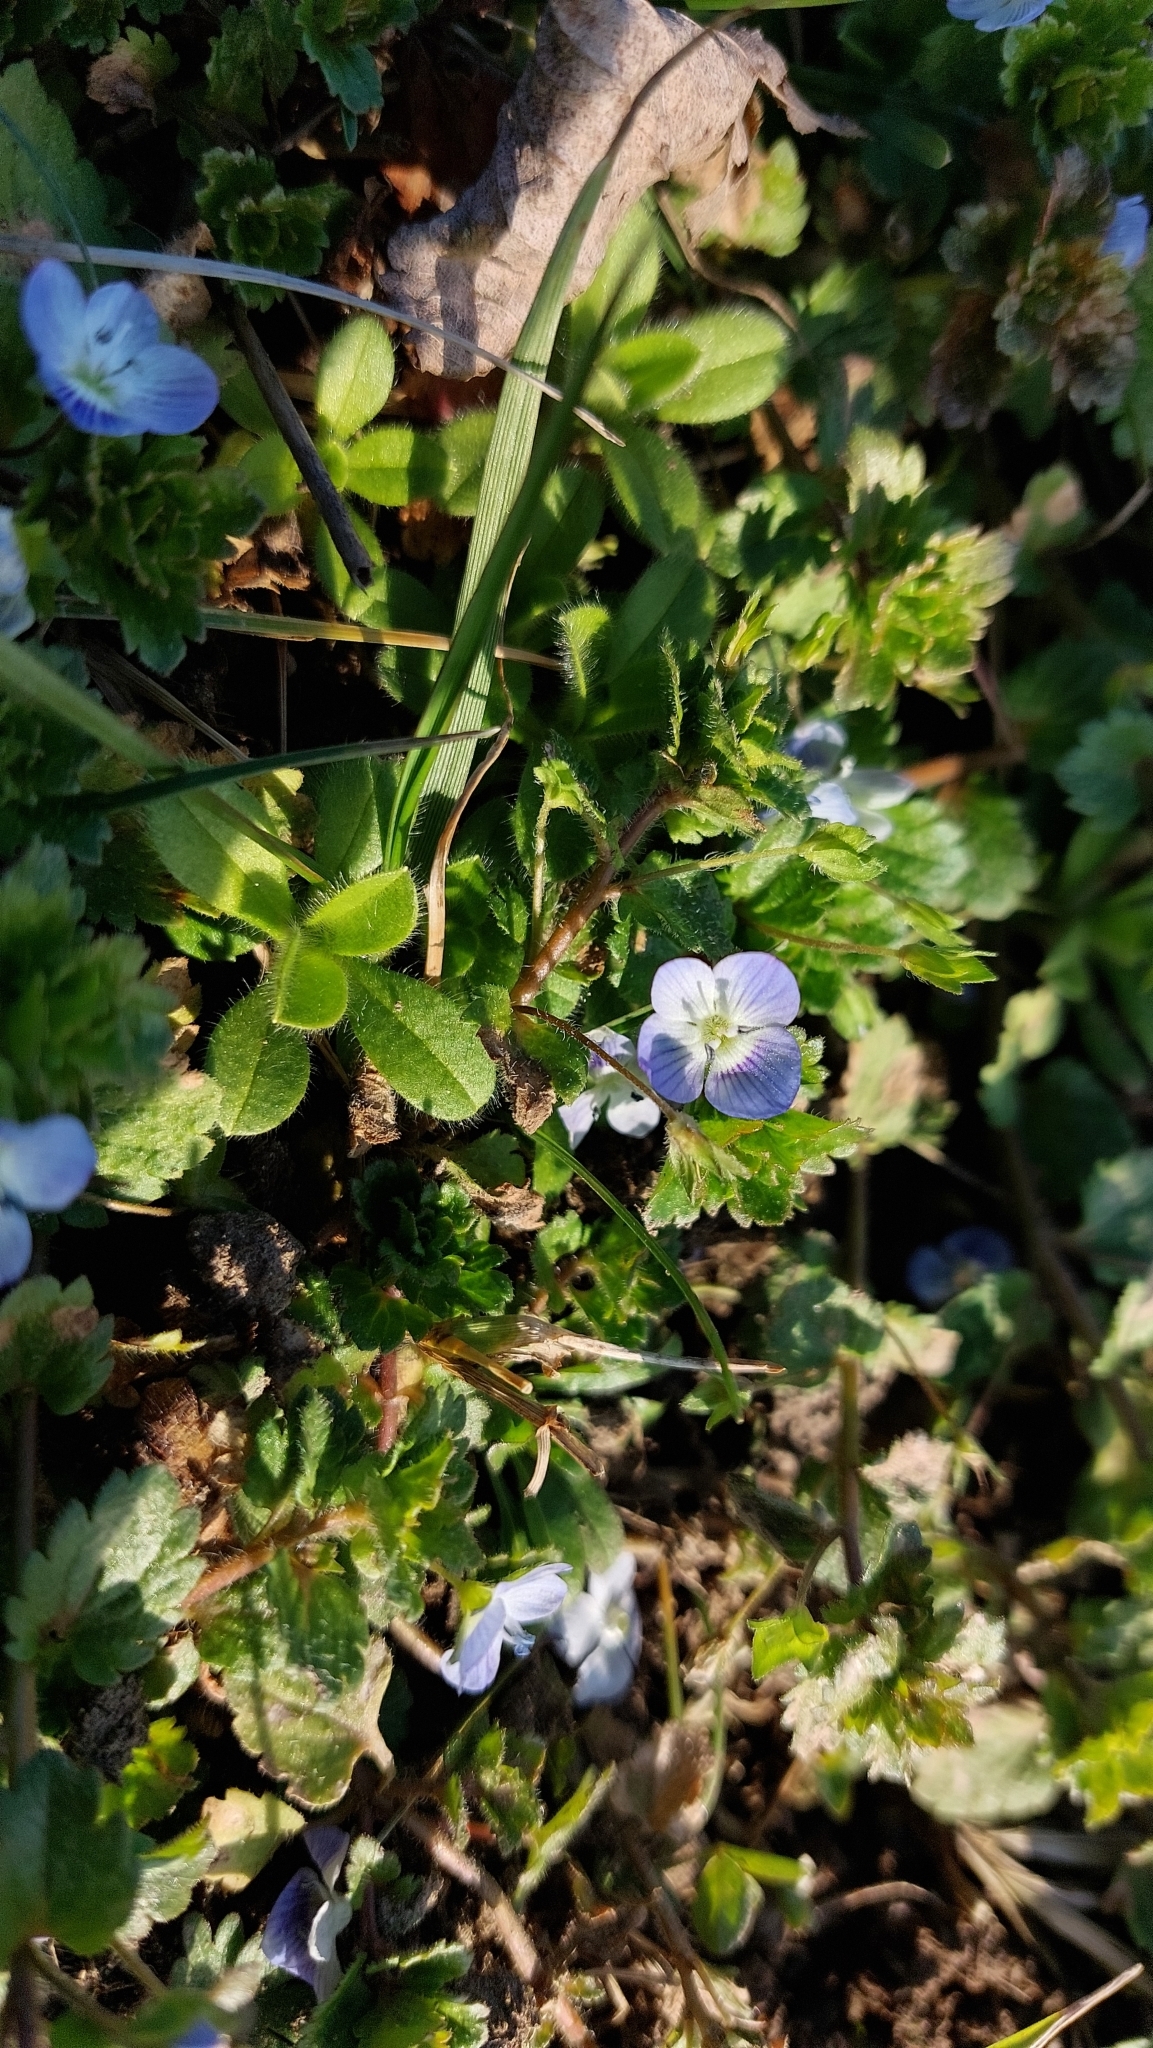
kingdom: Plantae
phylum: Tracheophyta
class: Magnoliopsida
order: Lamiales
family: Plantaginaceae
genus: Veronica
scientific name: Veronica persica
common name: Common field-speedwell
